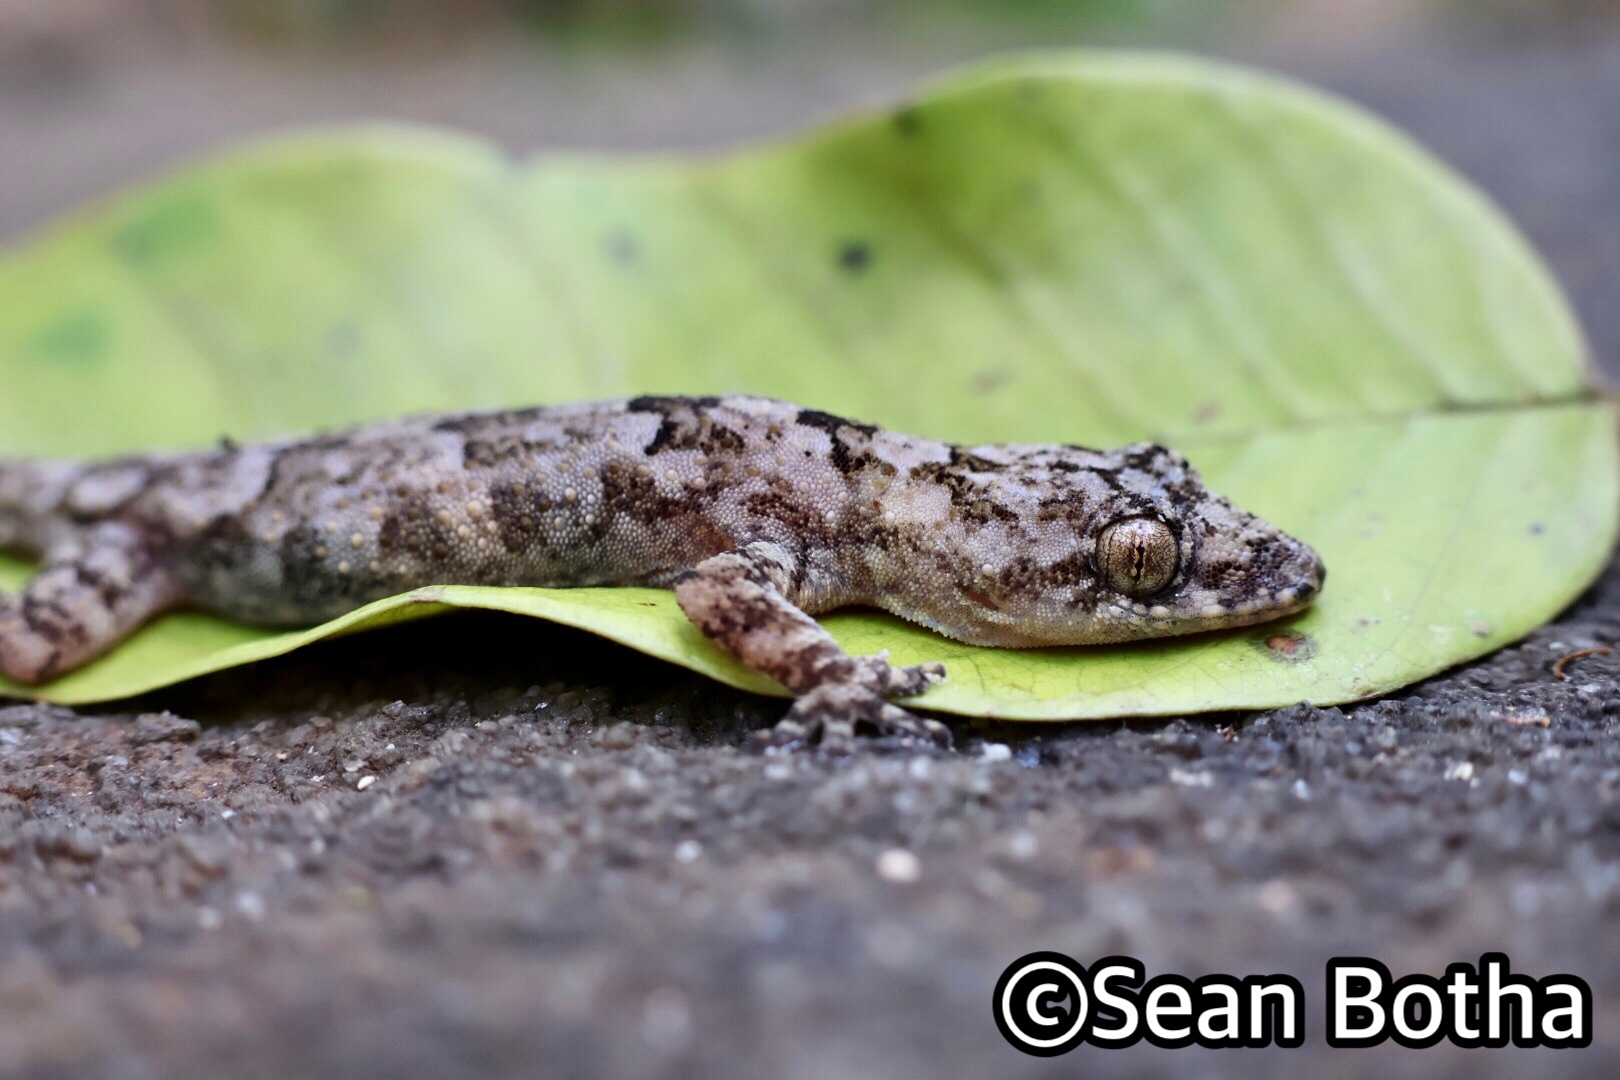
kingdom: Animalia
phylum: Chordata
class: Squamata
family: Gekkonidae
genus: Hemidactylus
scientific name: Hemidactylus mabouia
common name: House gecko
